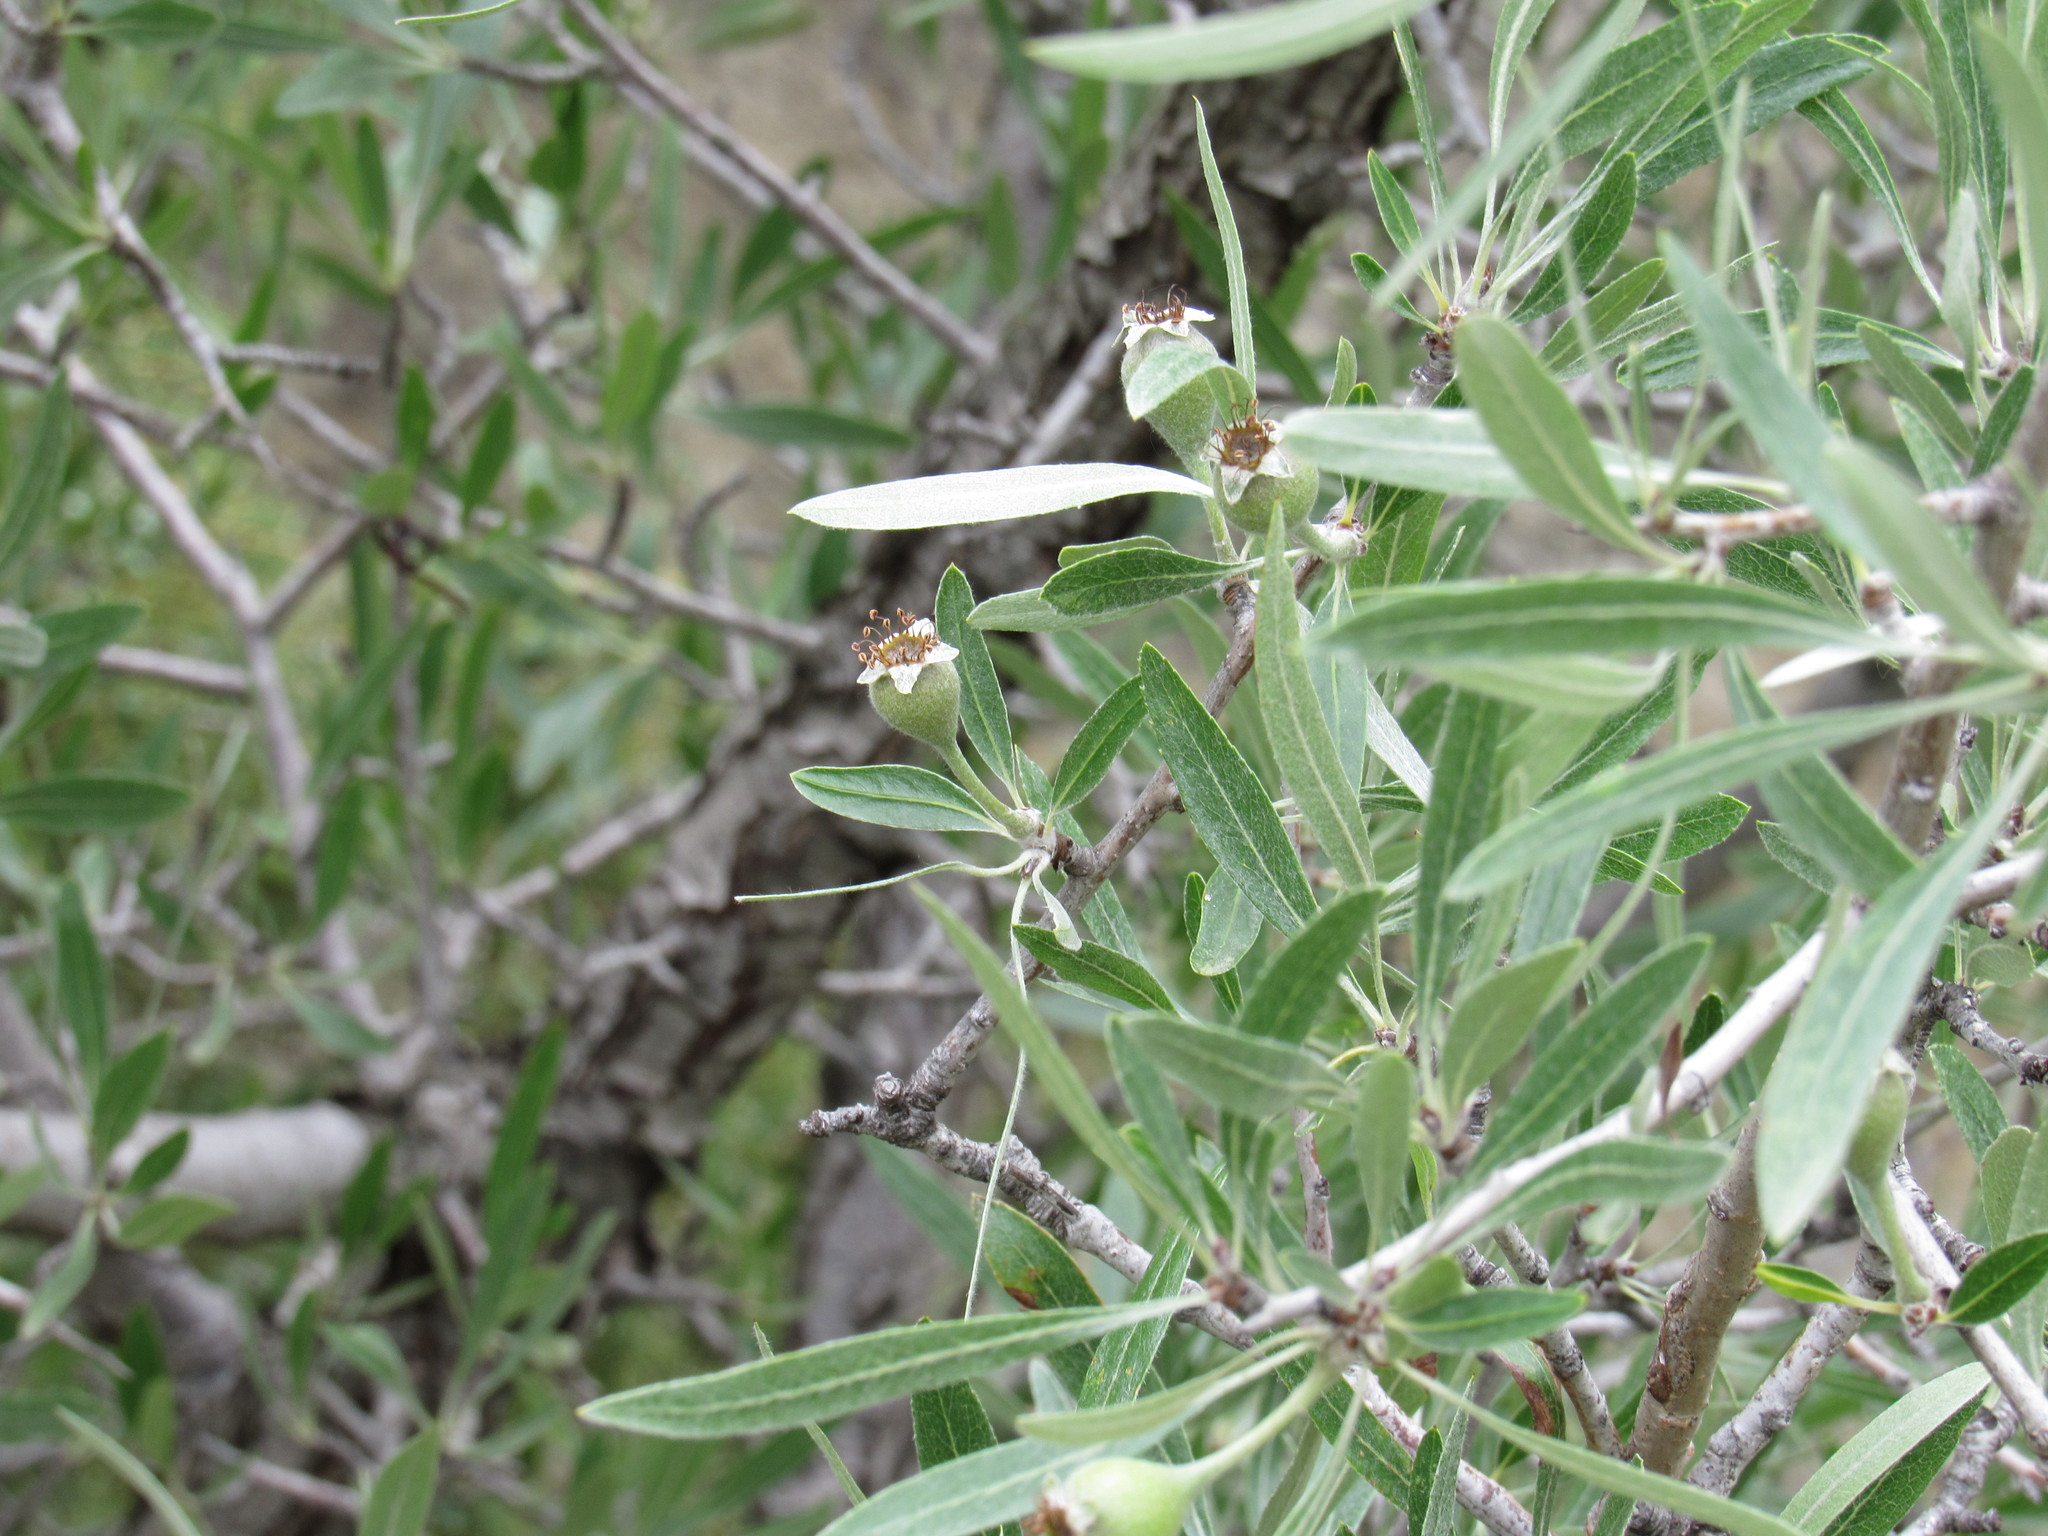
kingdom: Plantae
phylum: Tracheophyta
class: Magnoliopsida
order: Rosales
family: Rosaceae
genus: Pyrus
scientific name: Pyrus salicifolia
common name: Willow-leaved pear
